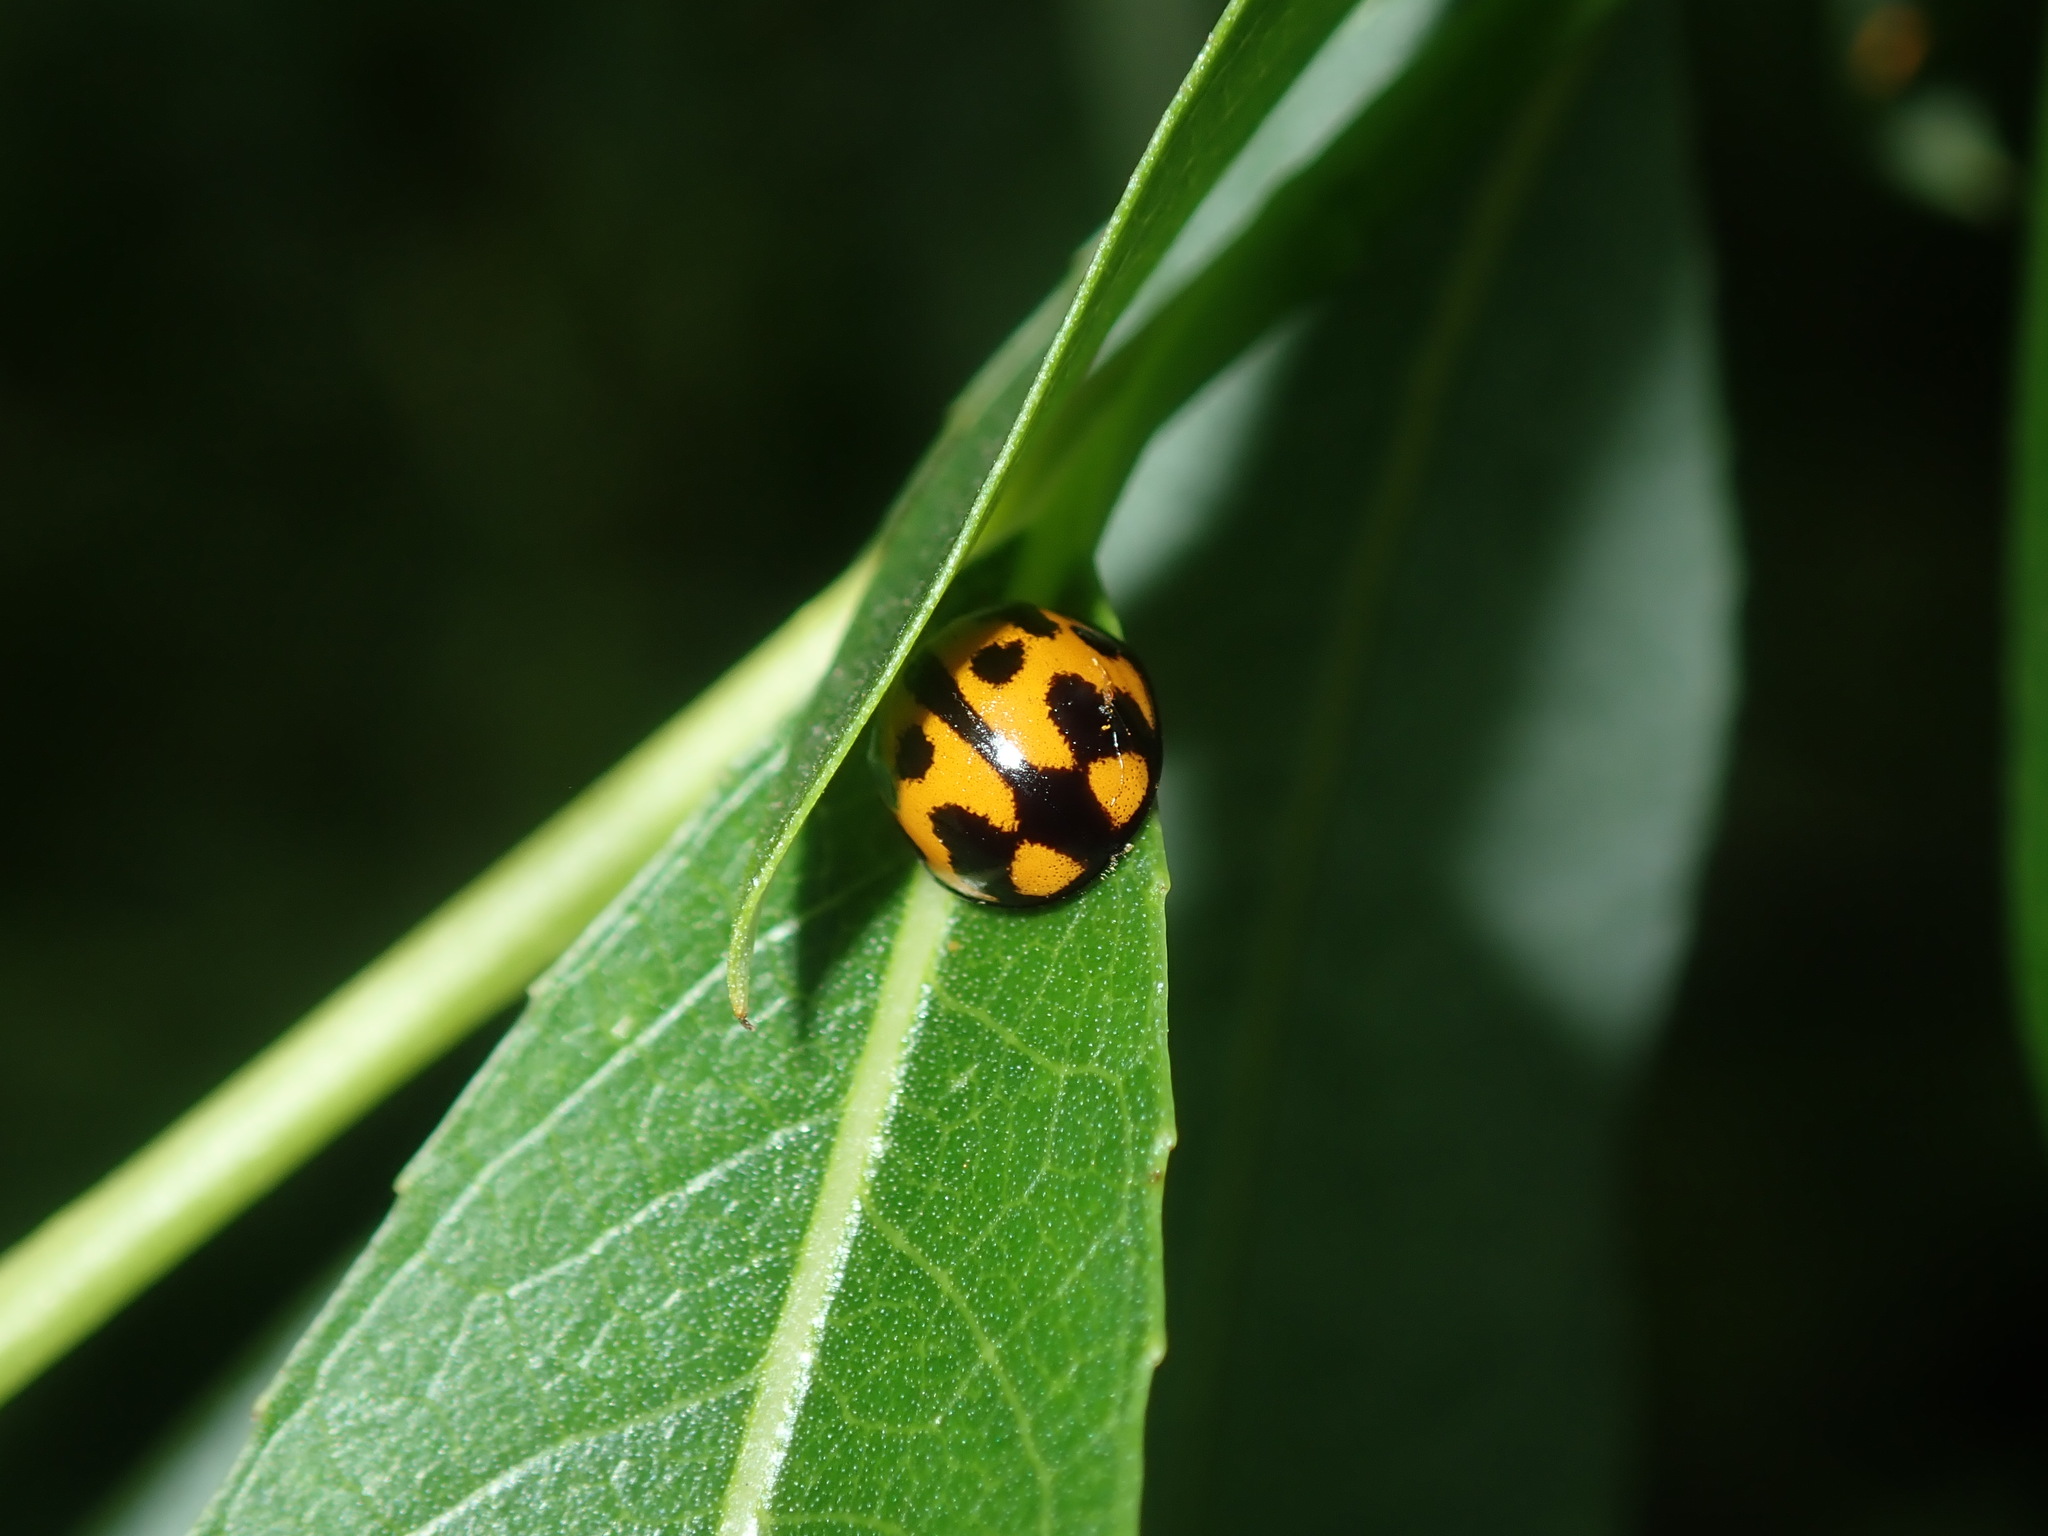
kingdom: Animalia
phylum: Arthropoda
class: Insecta
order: Coleoptera
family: Coccinellidae
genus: Coelophora
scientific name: Coelophora inaequalis
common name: Common australian lady beetle
